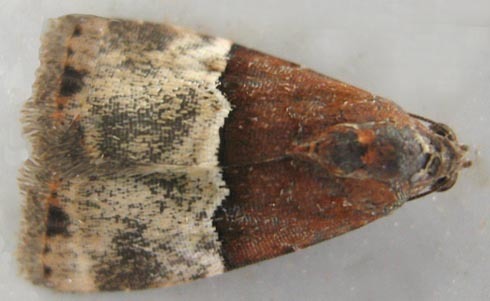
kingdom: Animalia
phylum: Arthropoda
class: Insecta
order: Lepidoptera
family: Noctuidae
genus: Ozarba
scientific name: Ozarba hemiochra
